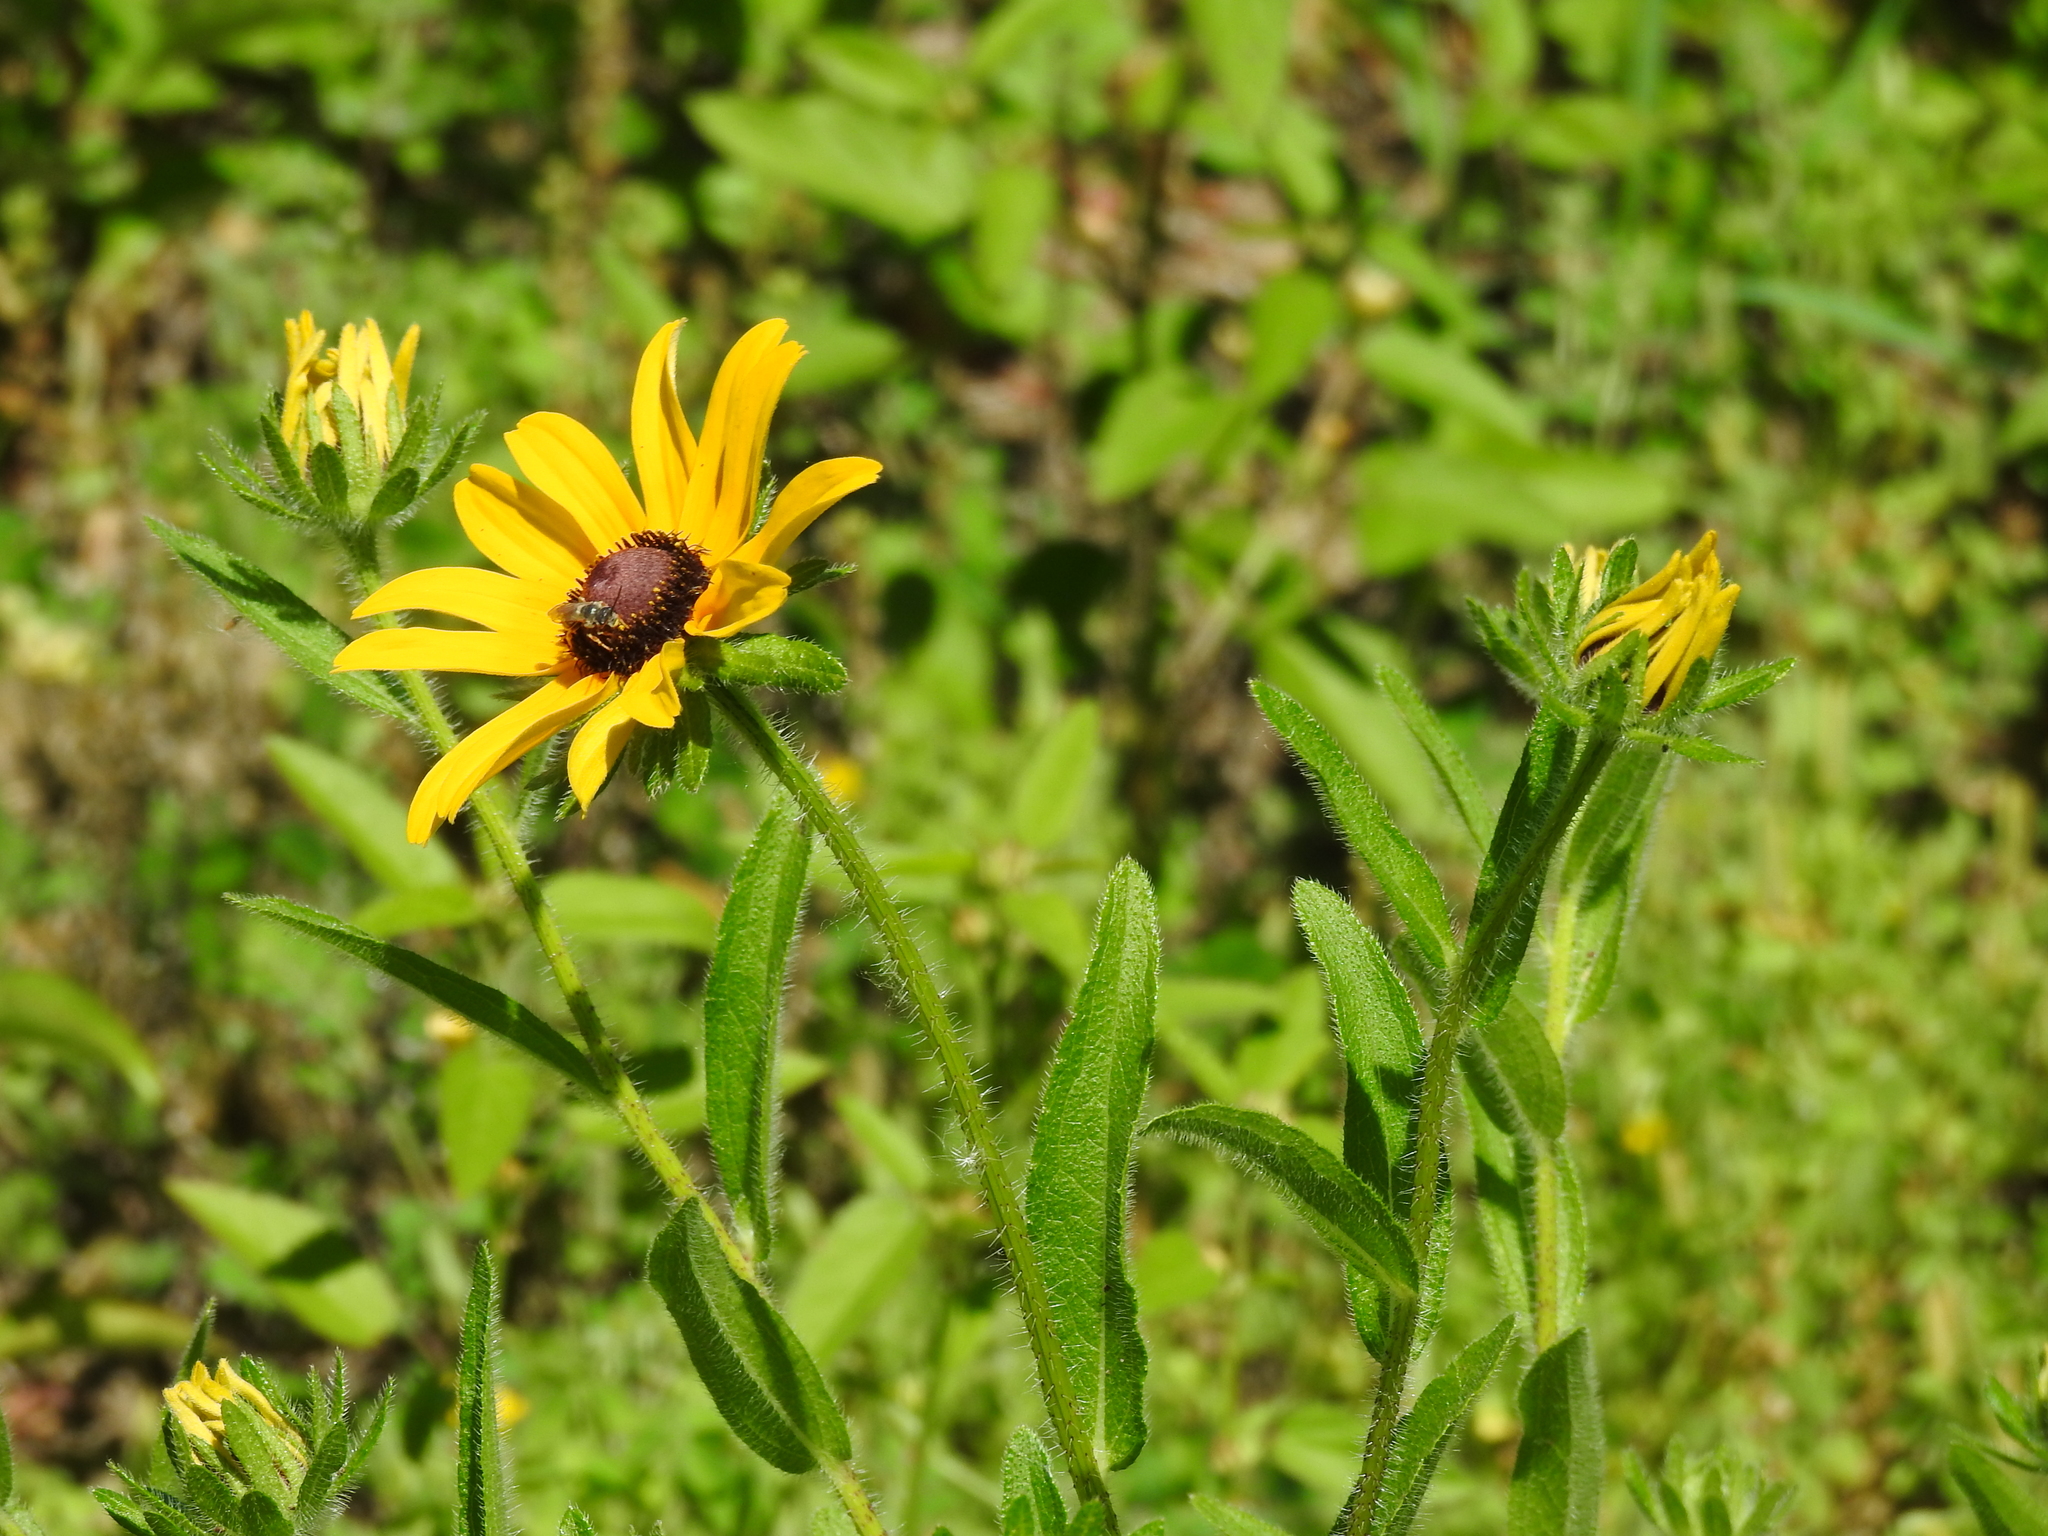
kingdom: Plantae
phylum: Tracheophyta
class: Magnoliopsida
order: Asterales
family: Asteraceae
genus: Rudbeckia
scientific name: Rudbeckia hirta
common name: Black-eyed-susan
